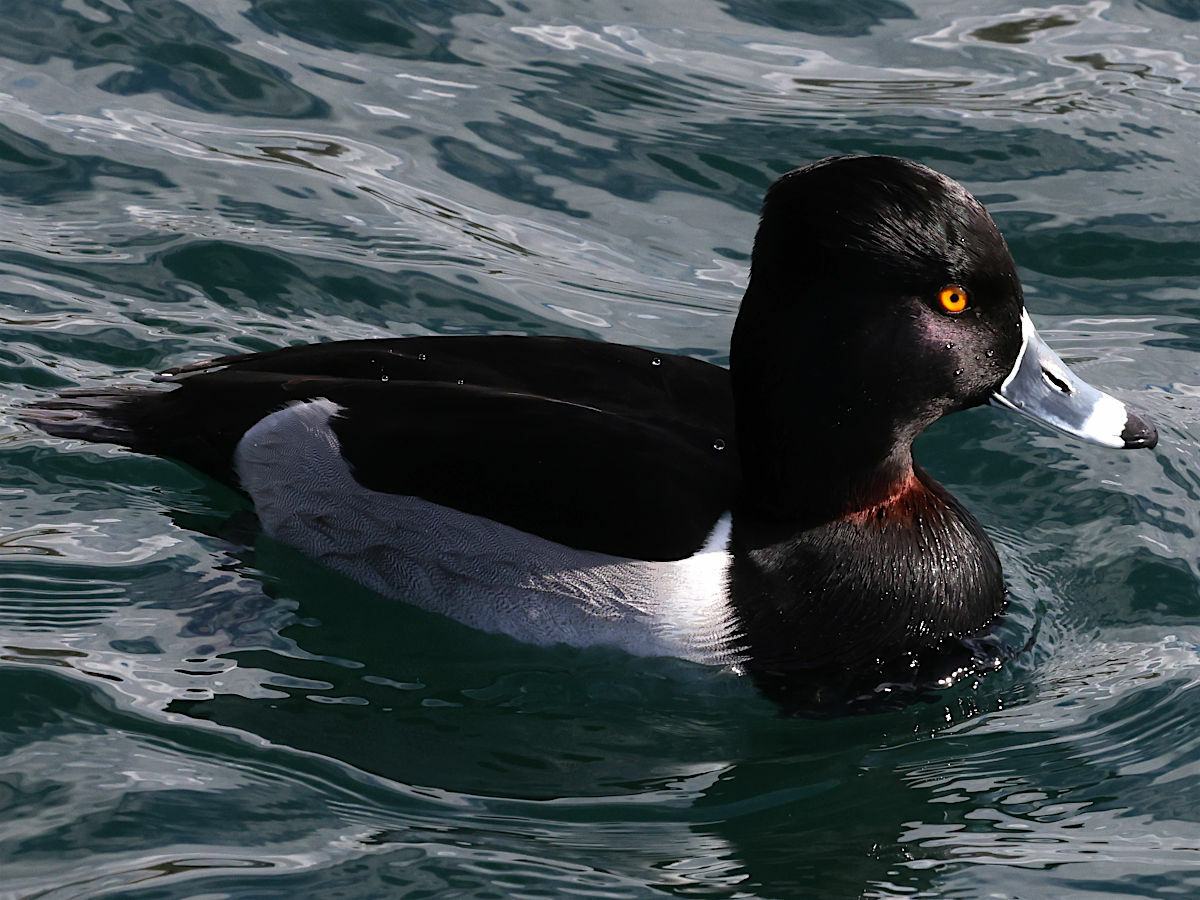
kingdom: Animalia
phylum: Chordata
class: Aves
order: Anseriformes
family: Anatidae
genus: Aythya
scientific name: Aythya collaris
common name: Ring-necked duck
